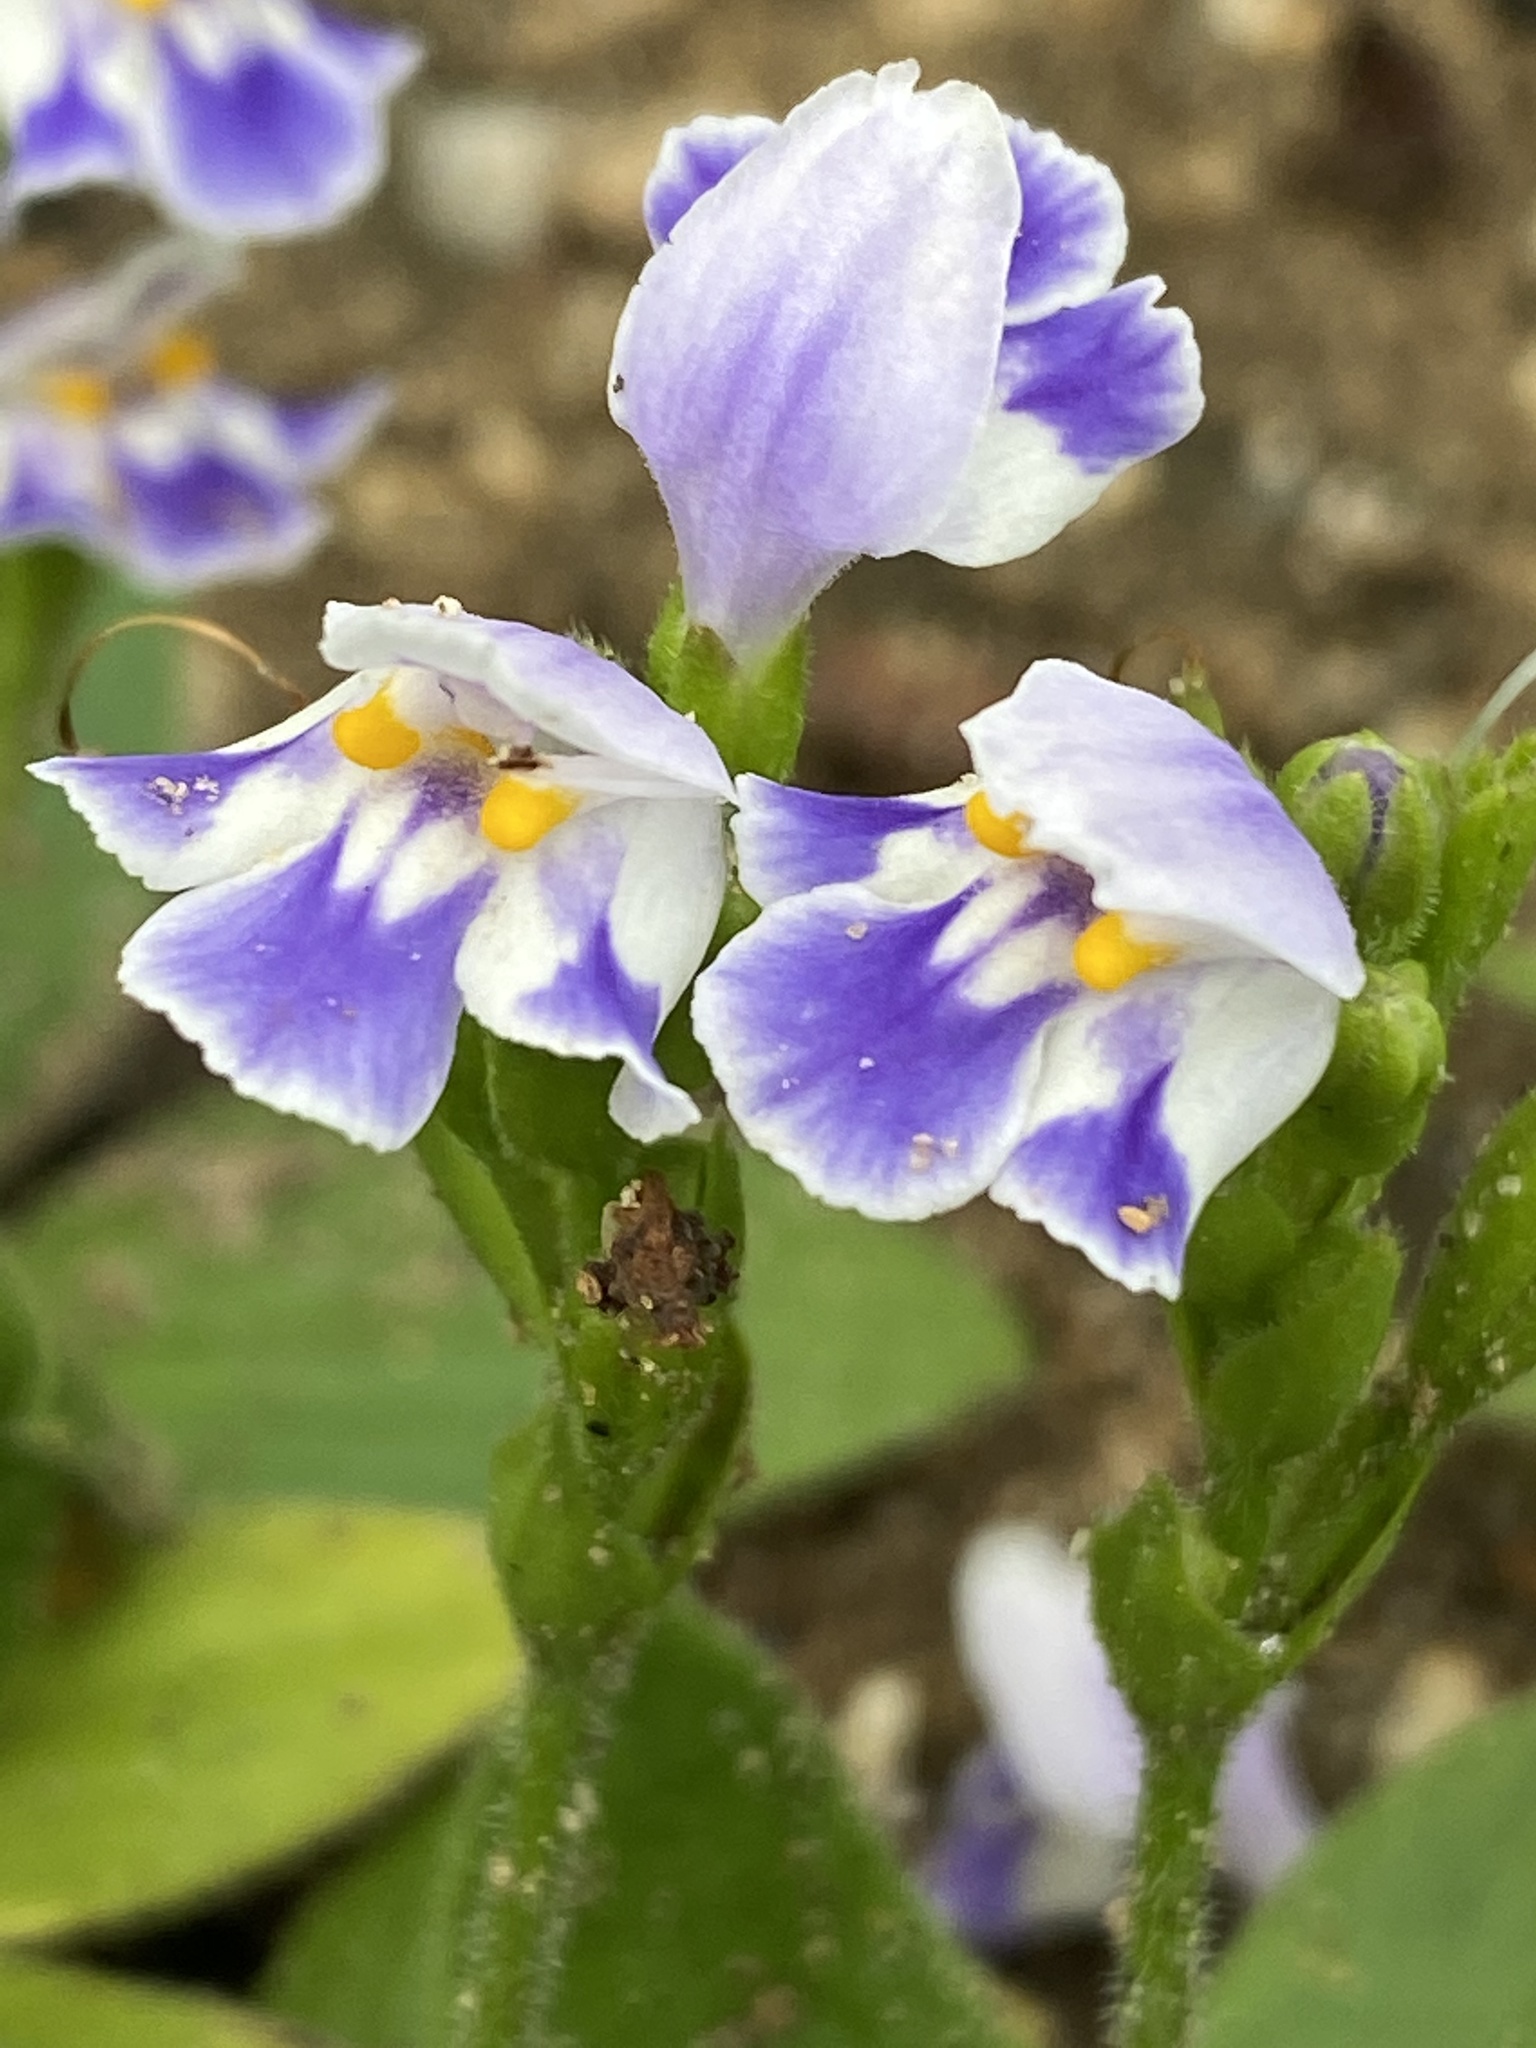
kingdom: Plantae
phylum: Tracheophyta
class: Magnoliopsida
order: Lamiales
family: Linderniaceae
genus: Craterostigma
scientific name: Craterostigma plantagineum
